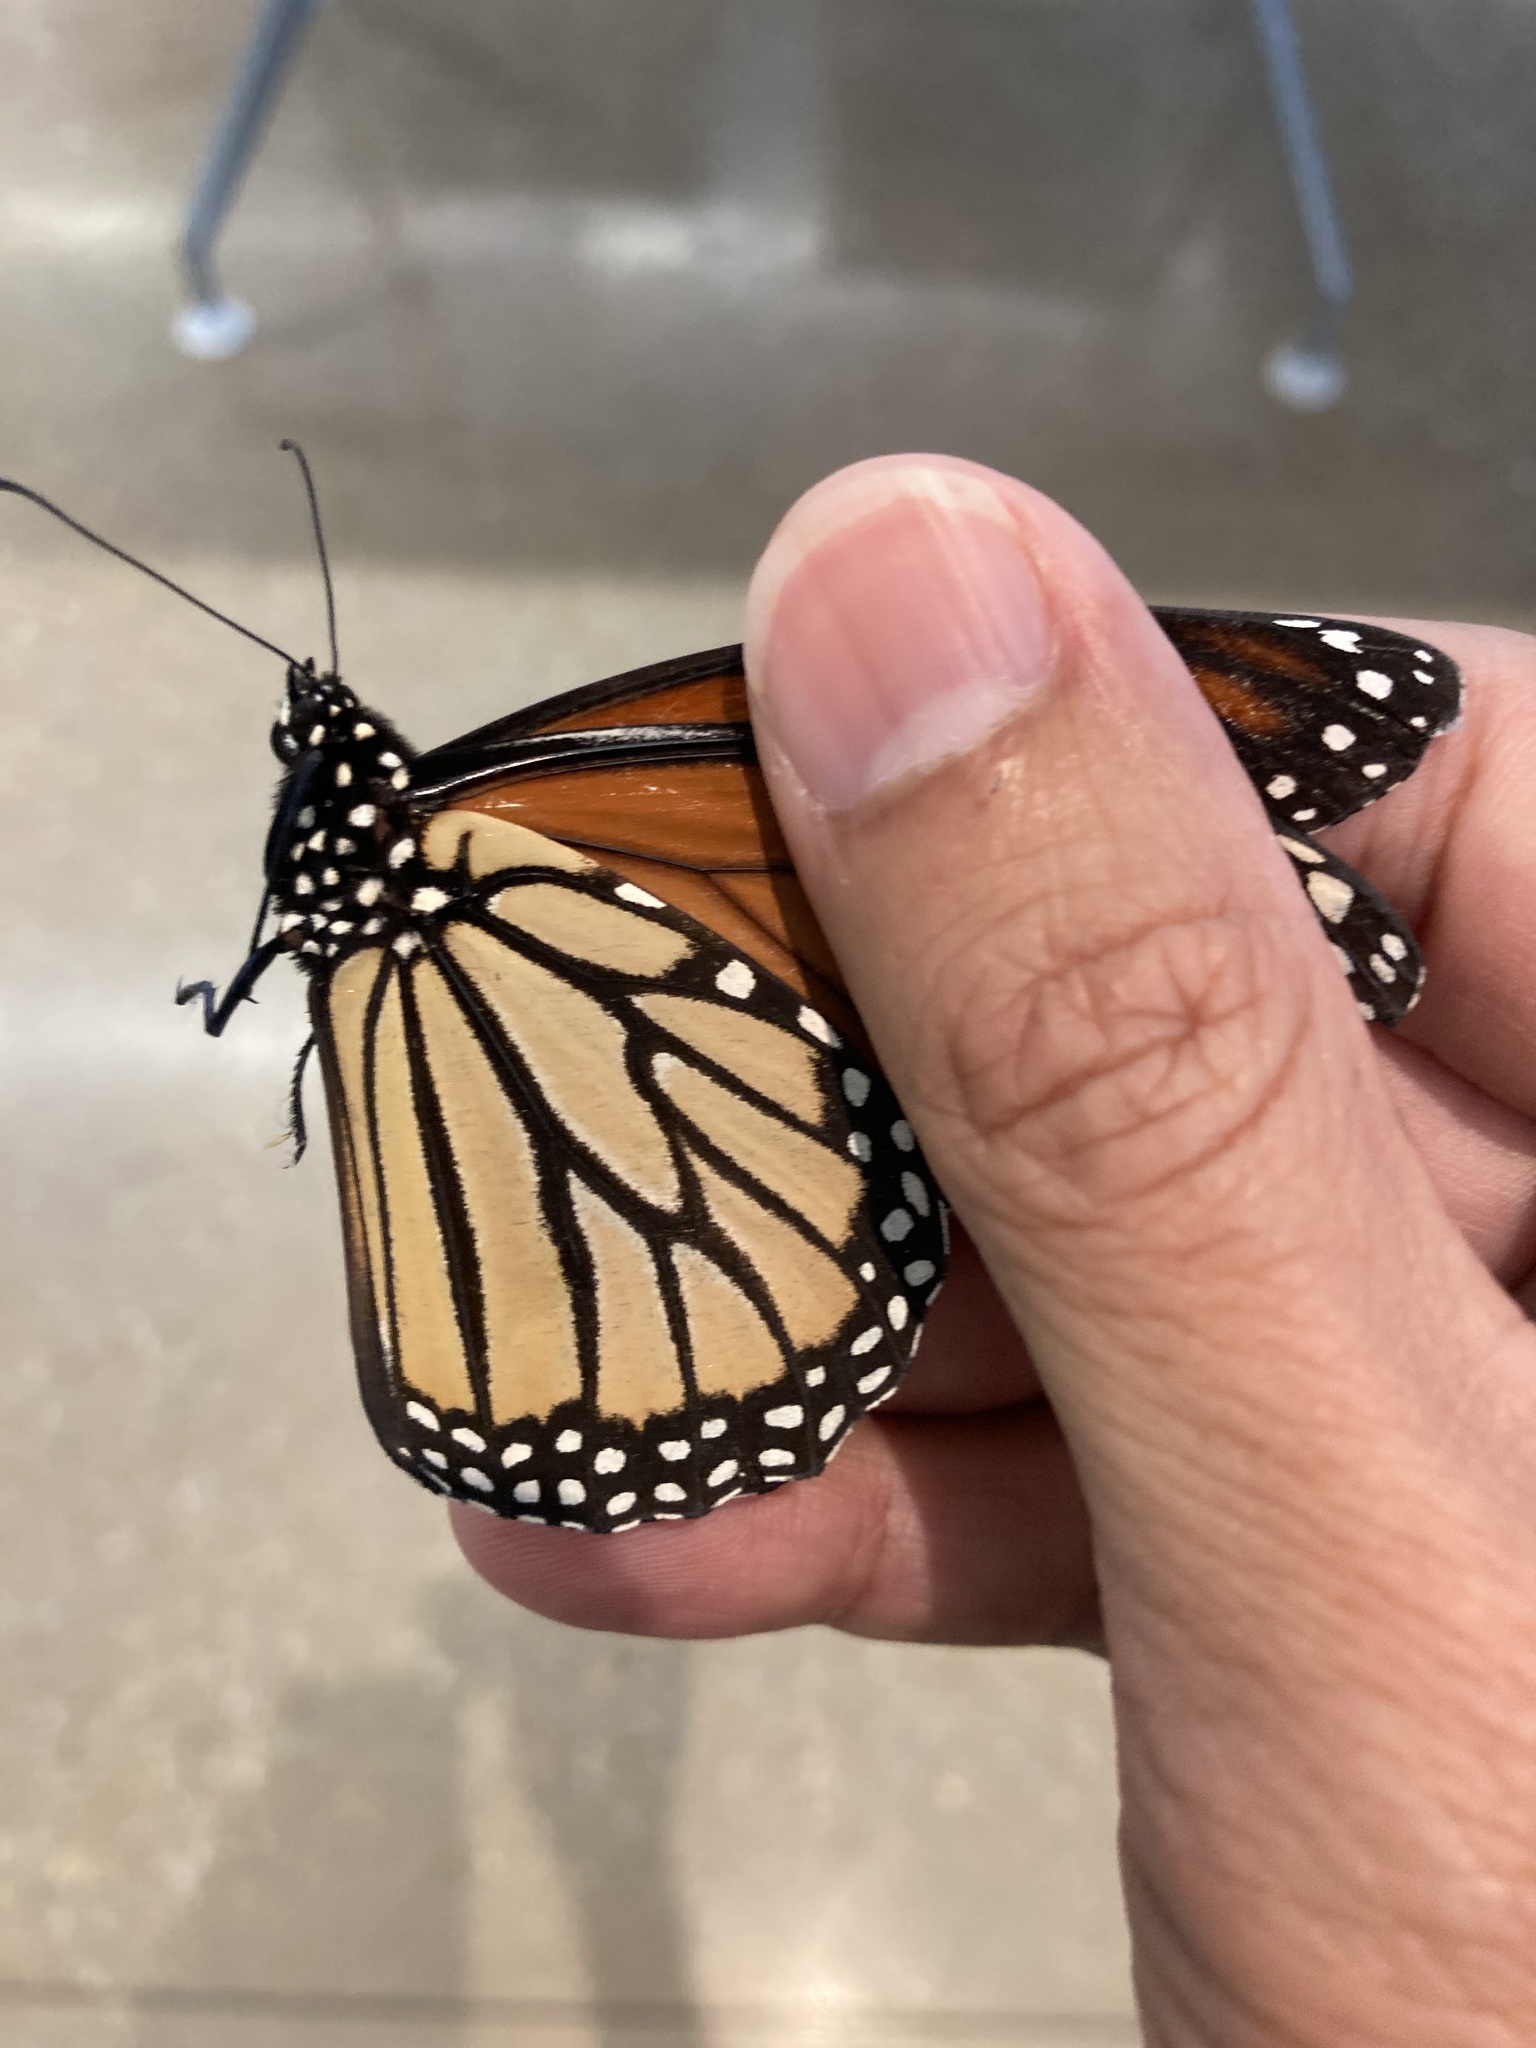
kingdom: Animalia
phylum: Arthropoda
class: Insecta
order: Lepidoptera
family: Nymphalidae
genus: Danaus
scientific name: Danaus plexippus
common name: Monarch
